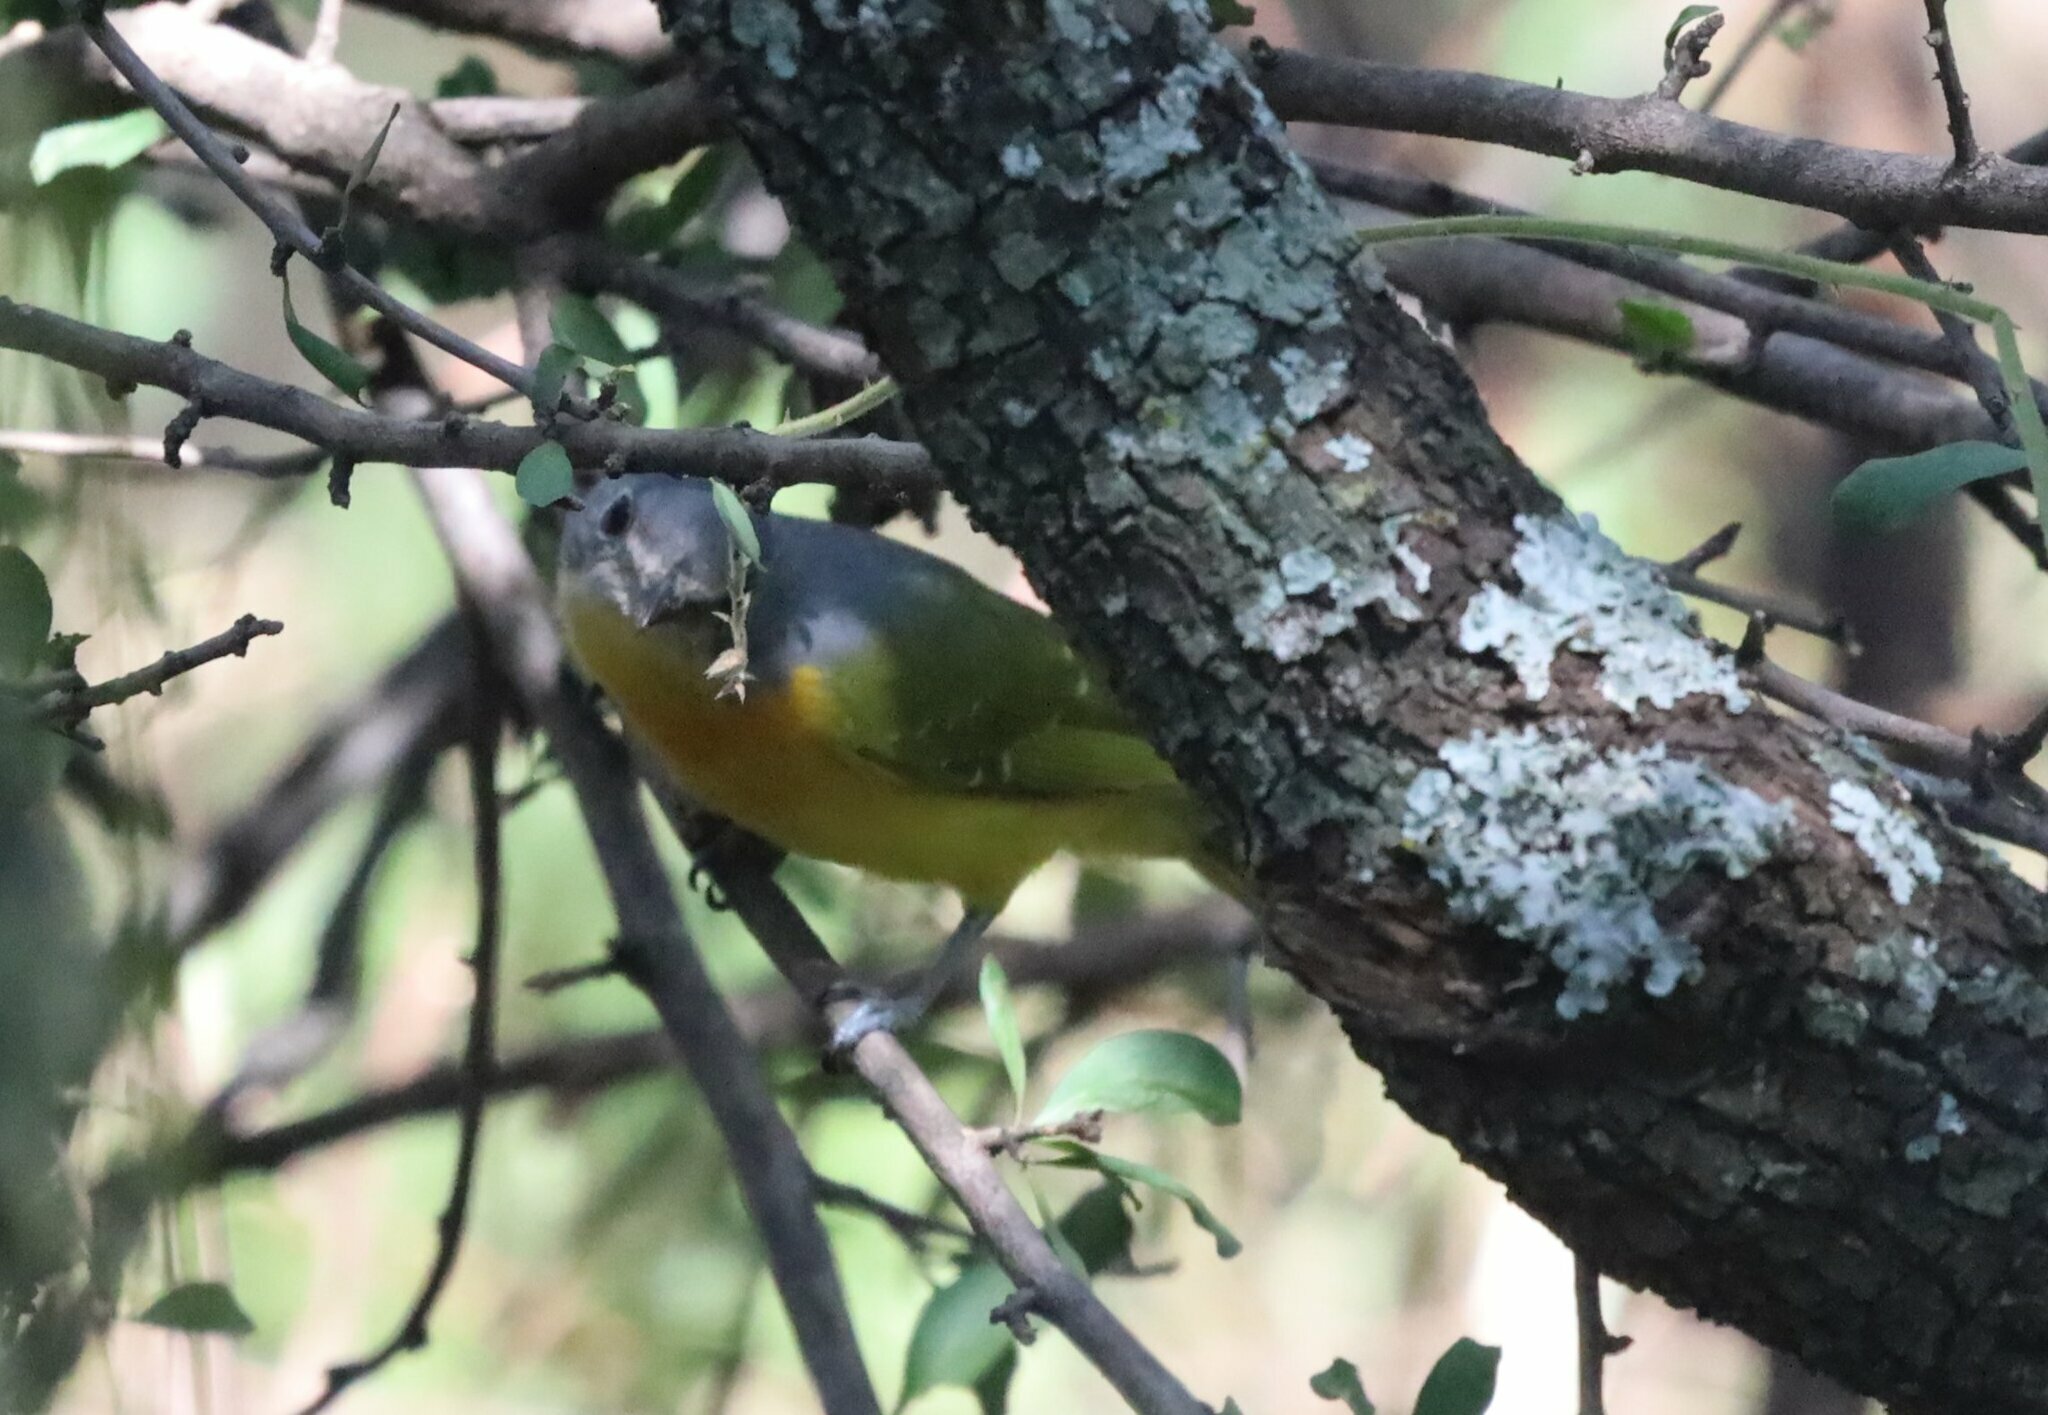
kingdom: Animalia
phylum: Chordata
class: Aves
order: Passeriformes
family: Malaconotidae
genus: Chlorophoneus
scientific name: Chlorophoneus sulfureopectus
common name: Orange-breasted bushshrike
